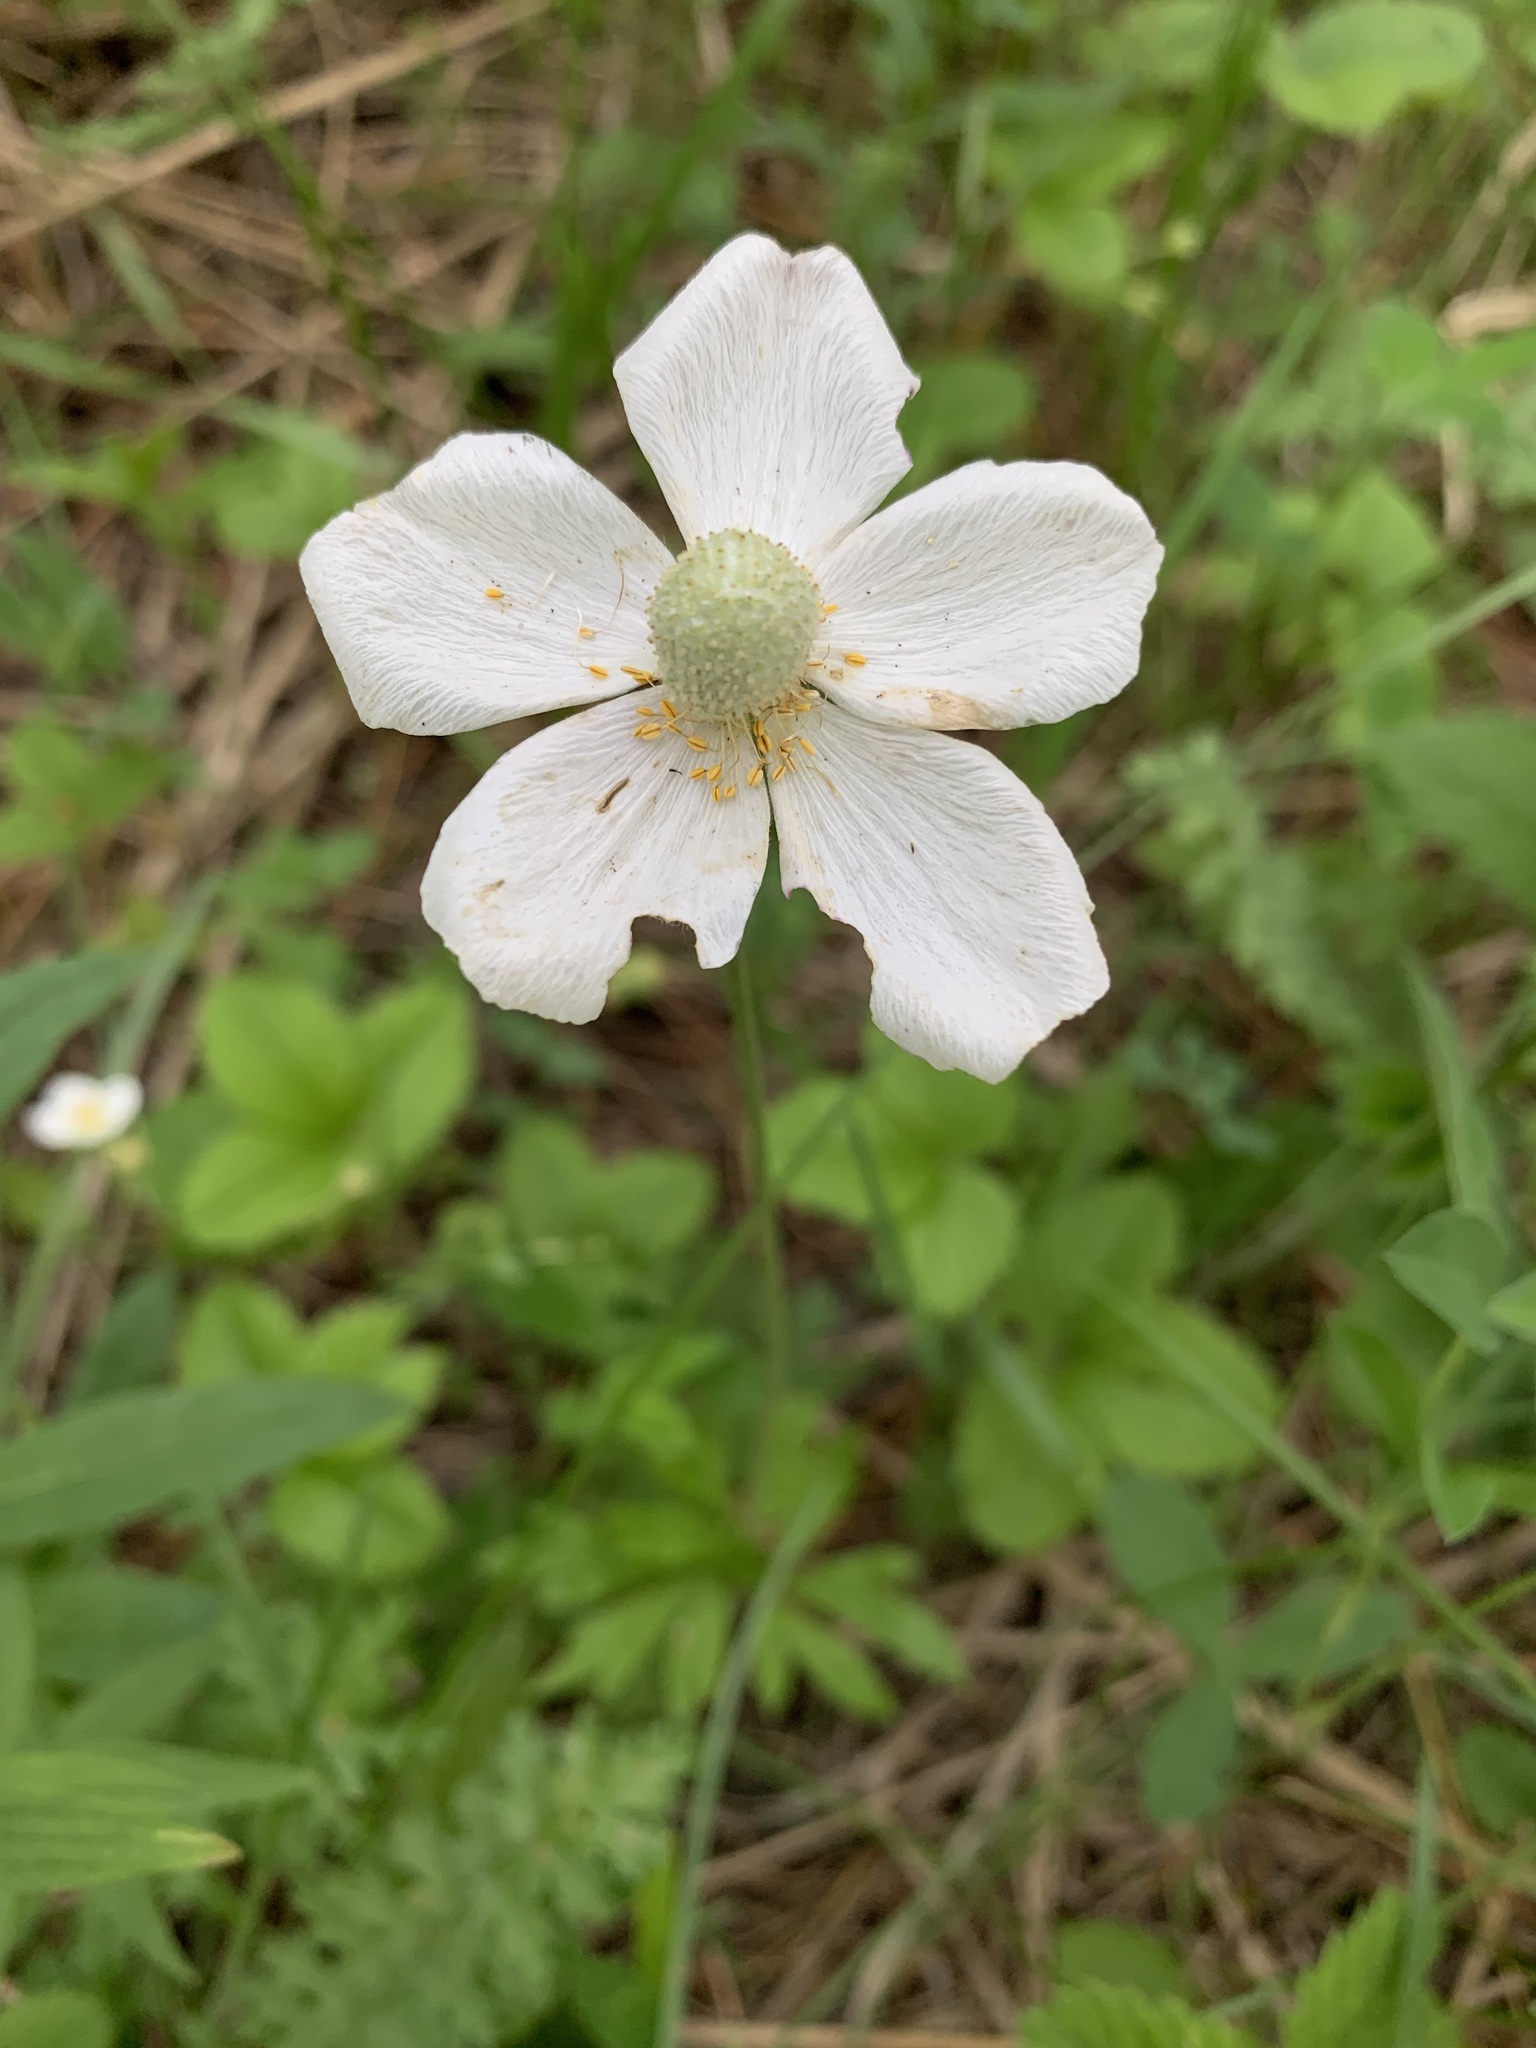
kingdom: Plantae
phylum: Tracheophyta
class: Magnoliopsida
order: Ranunculales
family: Ranunculaceae
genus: Anemone
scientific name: Anemone sylvestris
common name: Snowdrop anemone
